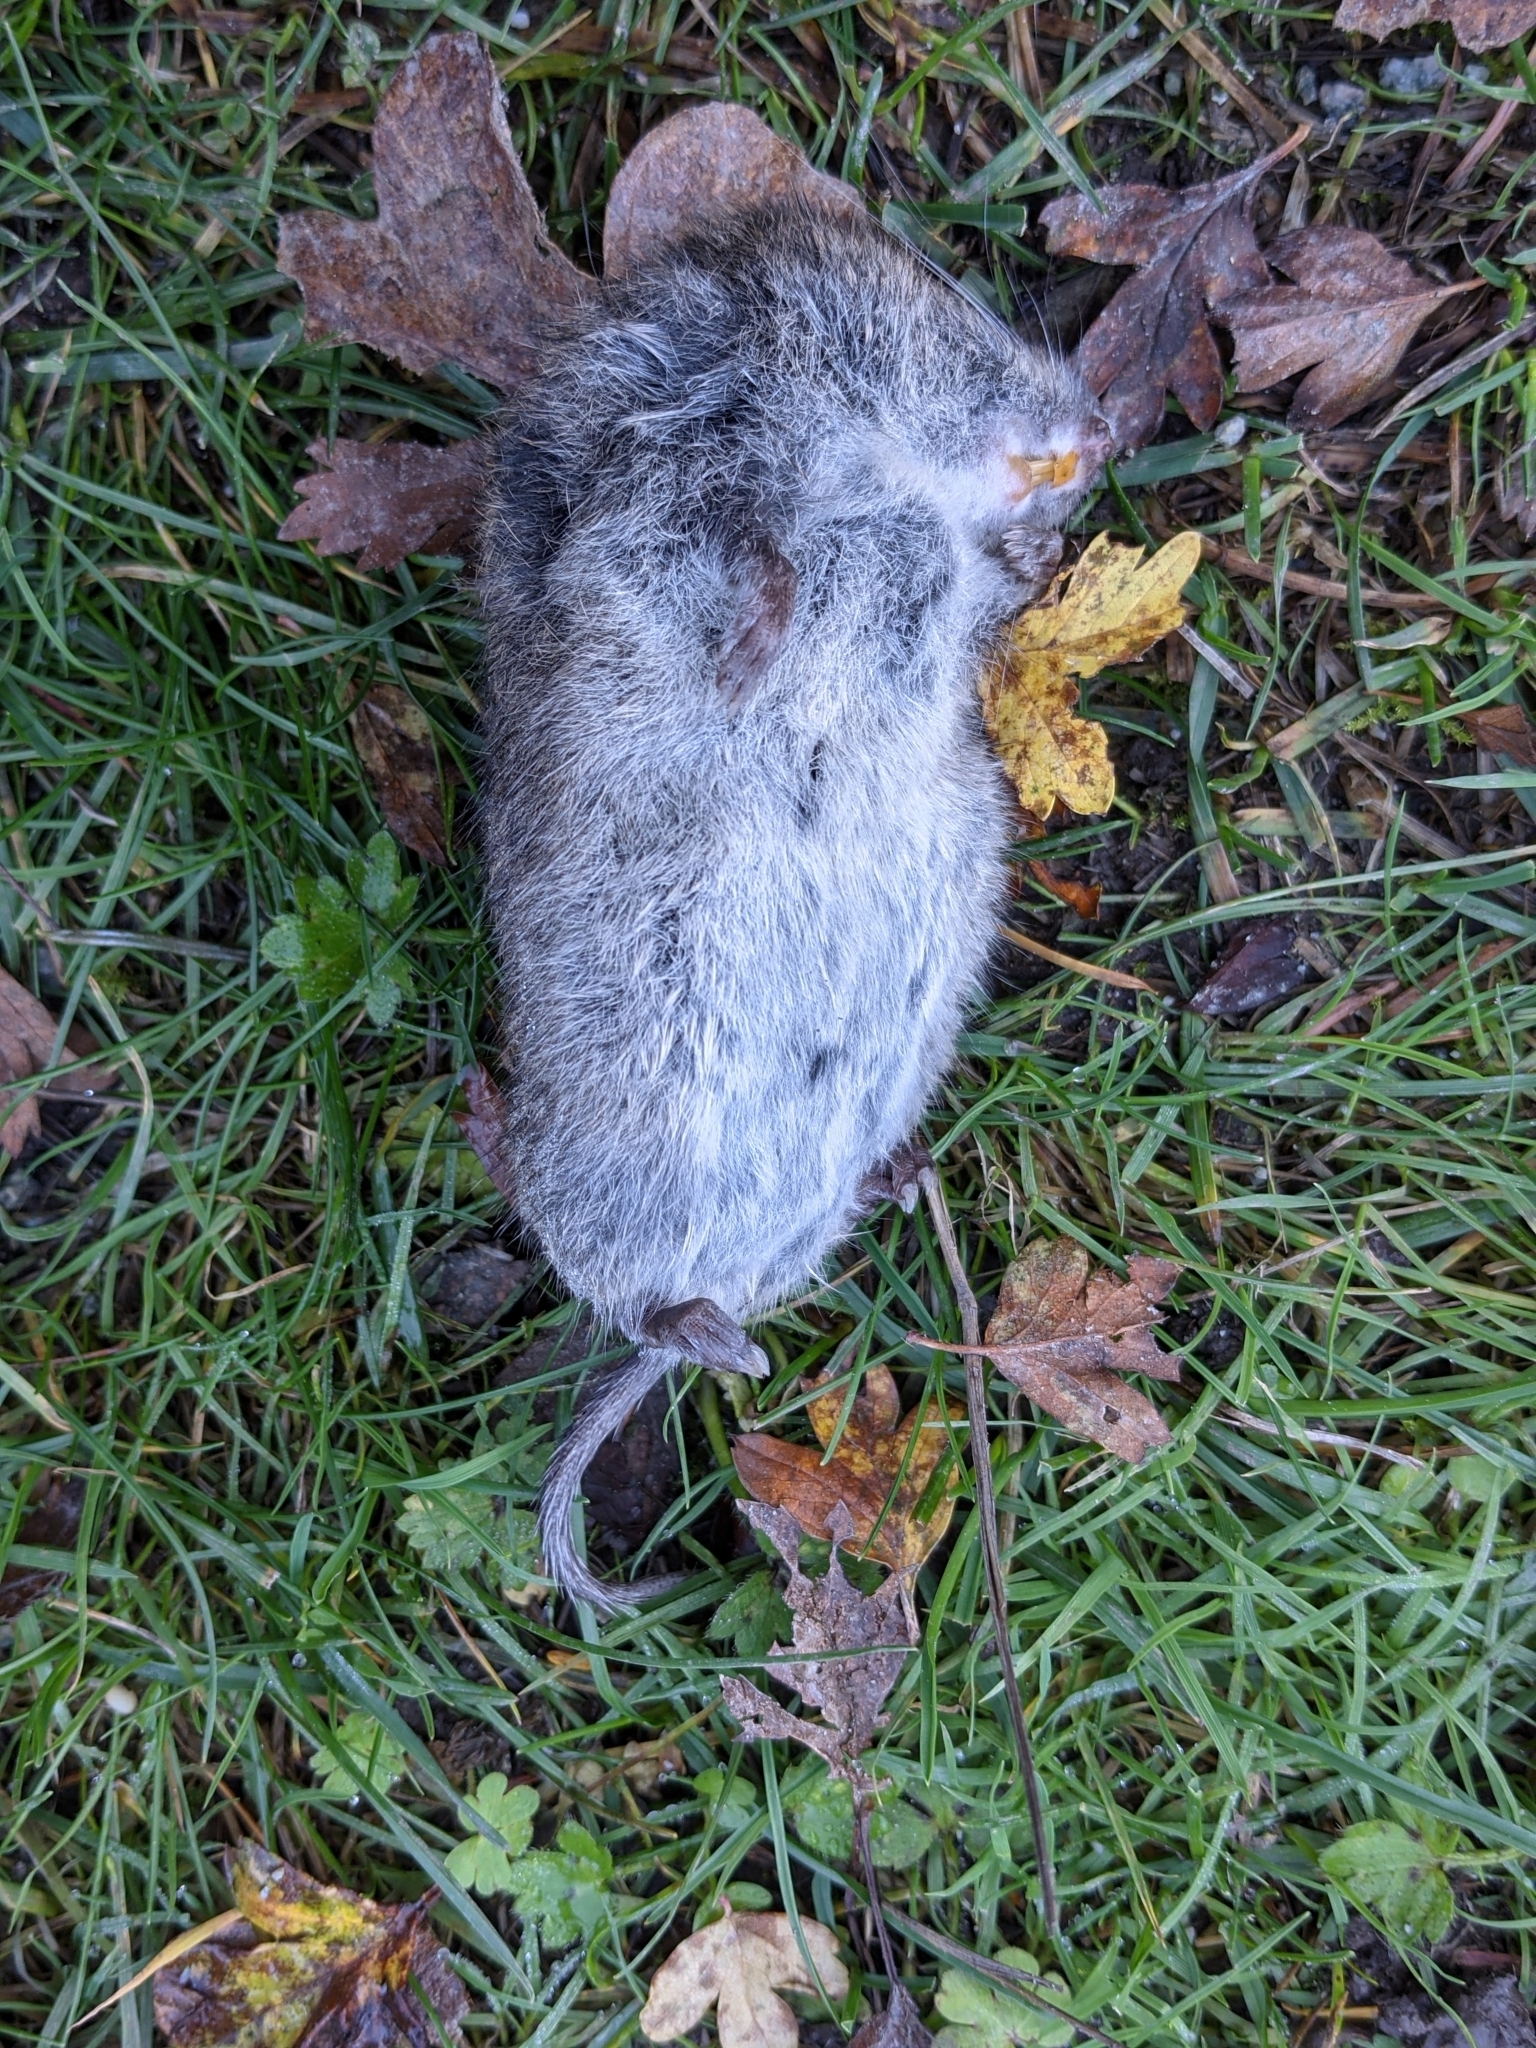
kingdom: Animalia
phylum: Chordata
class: Mammalia
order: Rodentia
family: Cricetidae
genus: Microtus
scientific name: Microtus townsendii
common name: Townsend's vole
